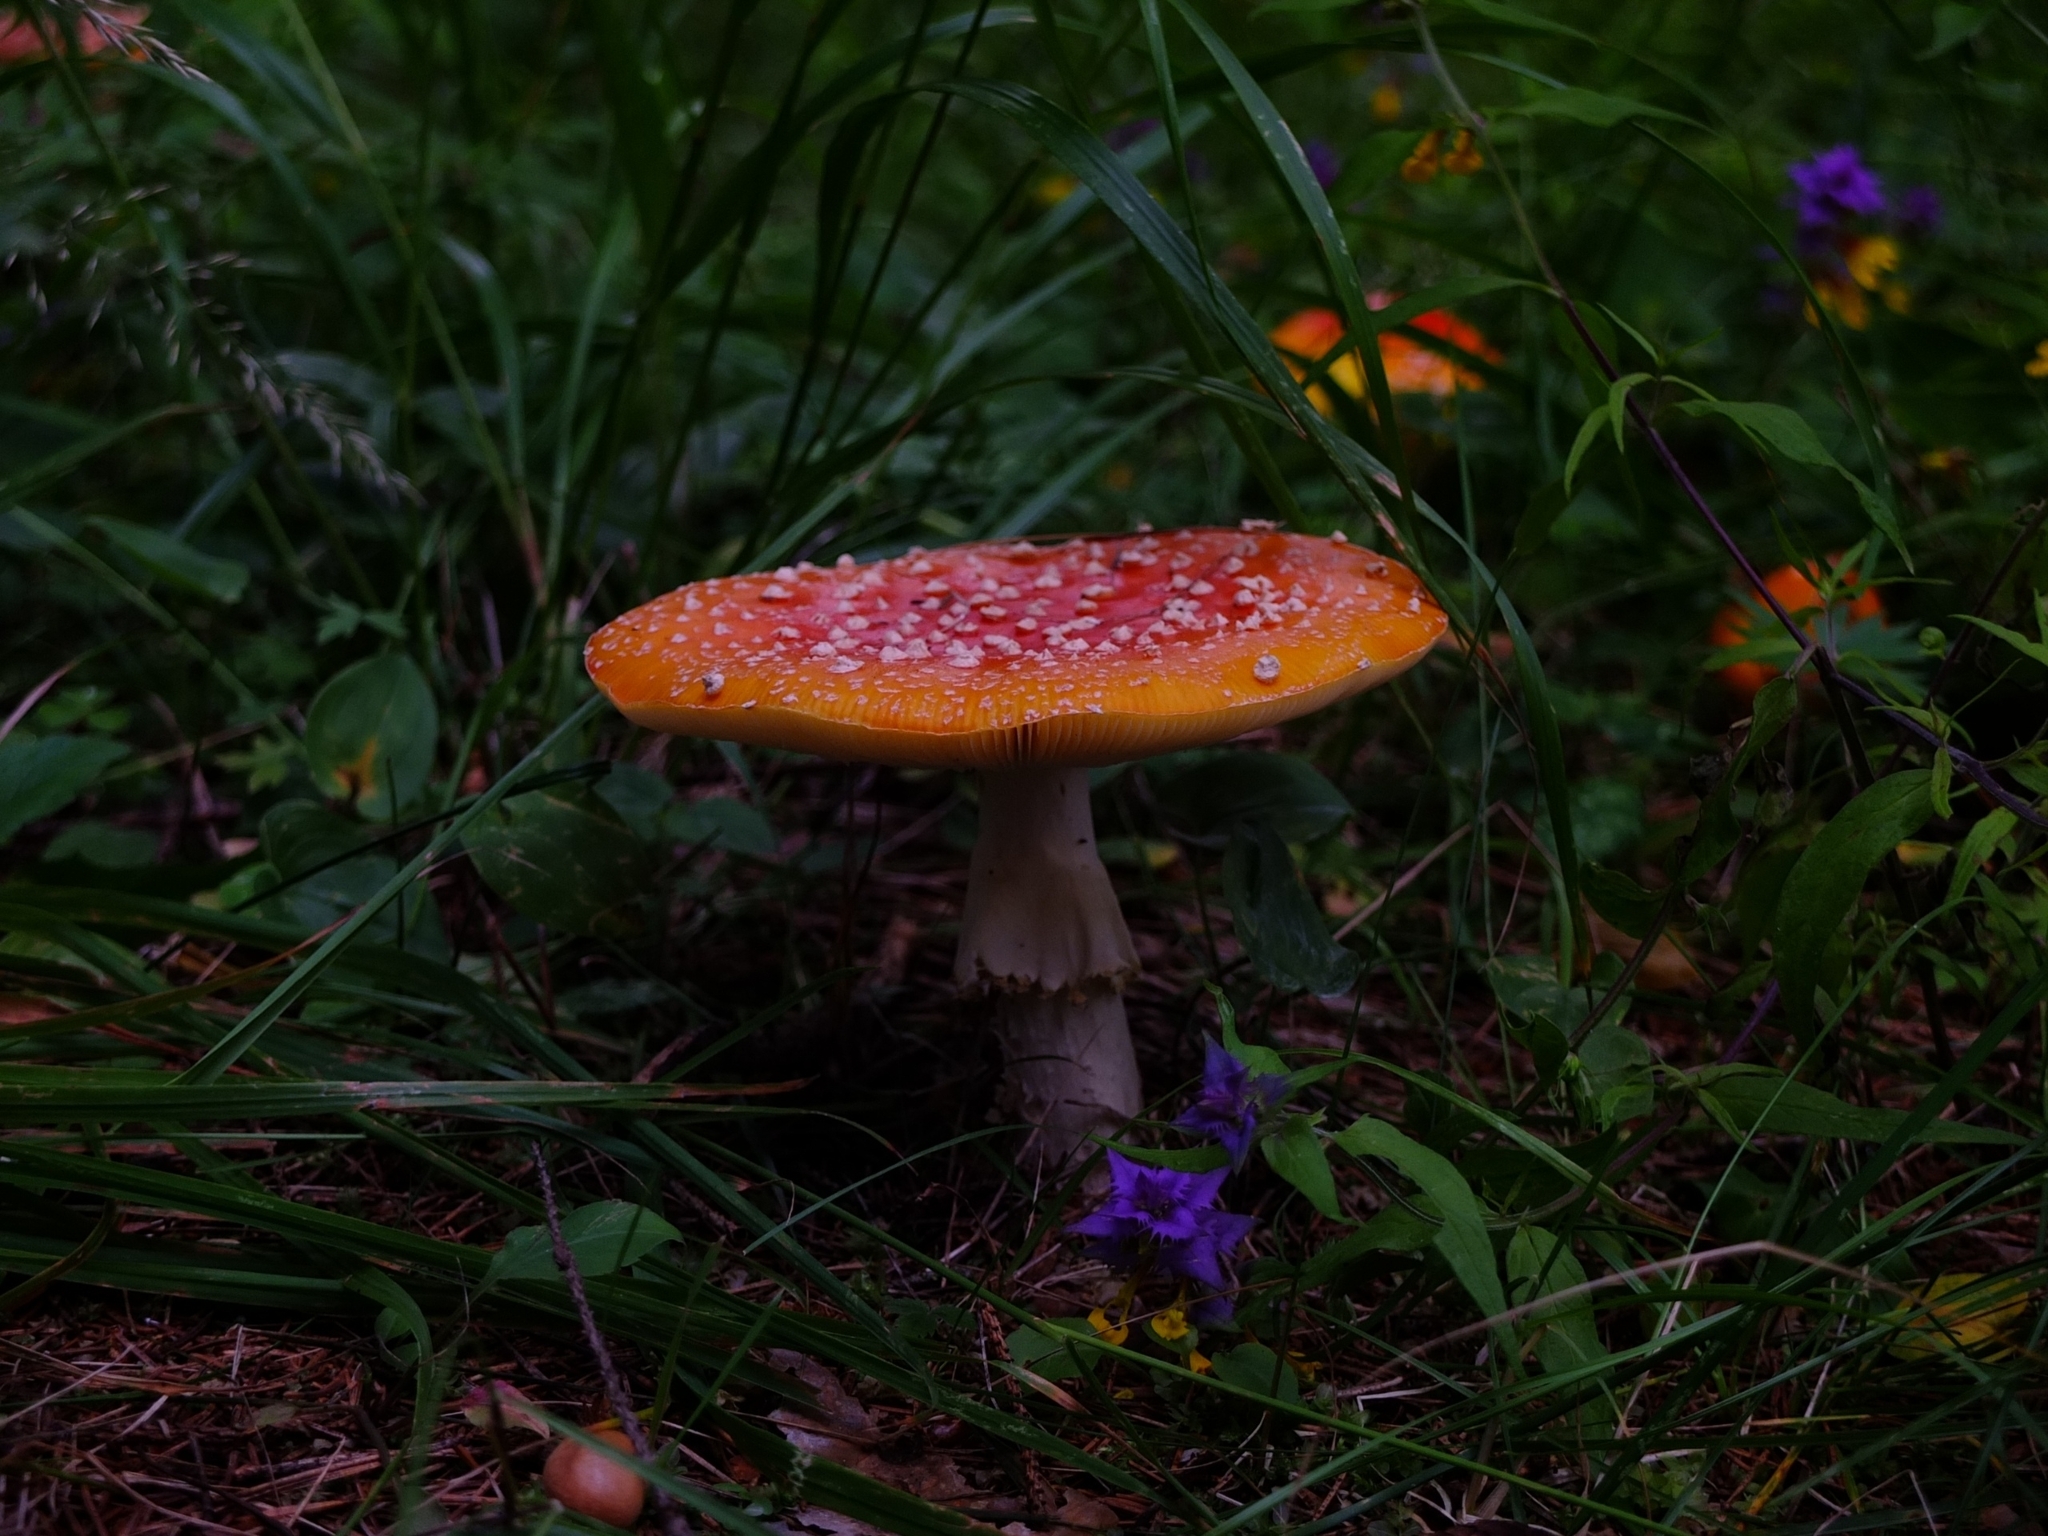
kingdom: Fungi
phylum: Basidiomycota
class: Agaricomycetes
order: Agaricales
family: Amanitaceae
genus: Amanita
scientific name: Amanita muscaria
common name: Fly agaric
